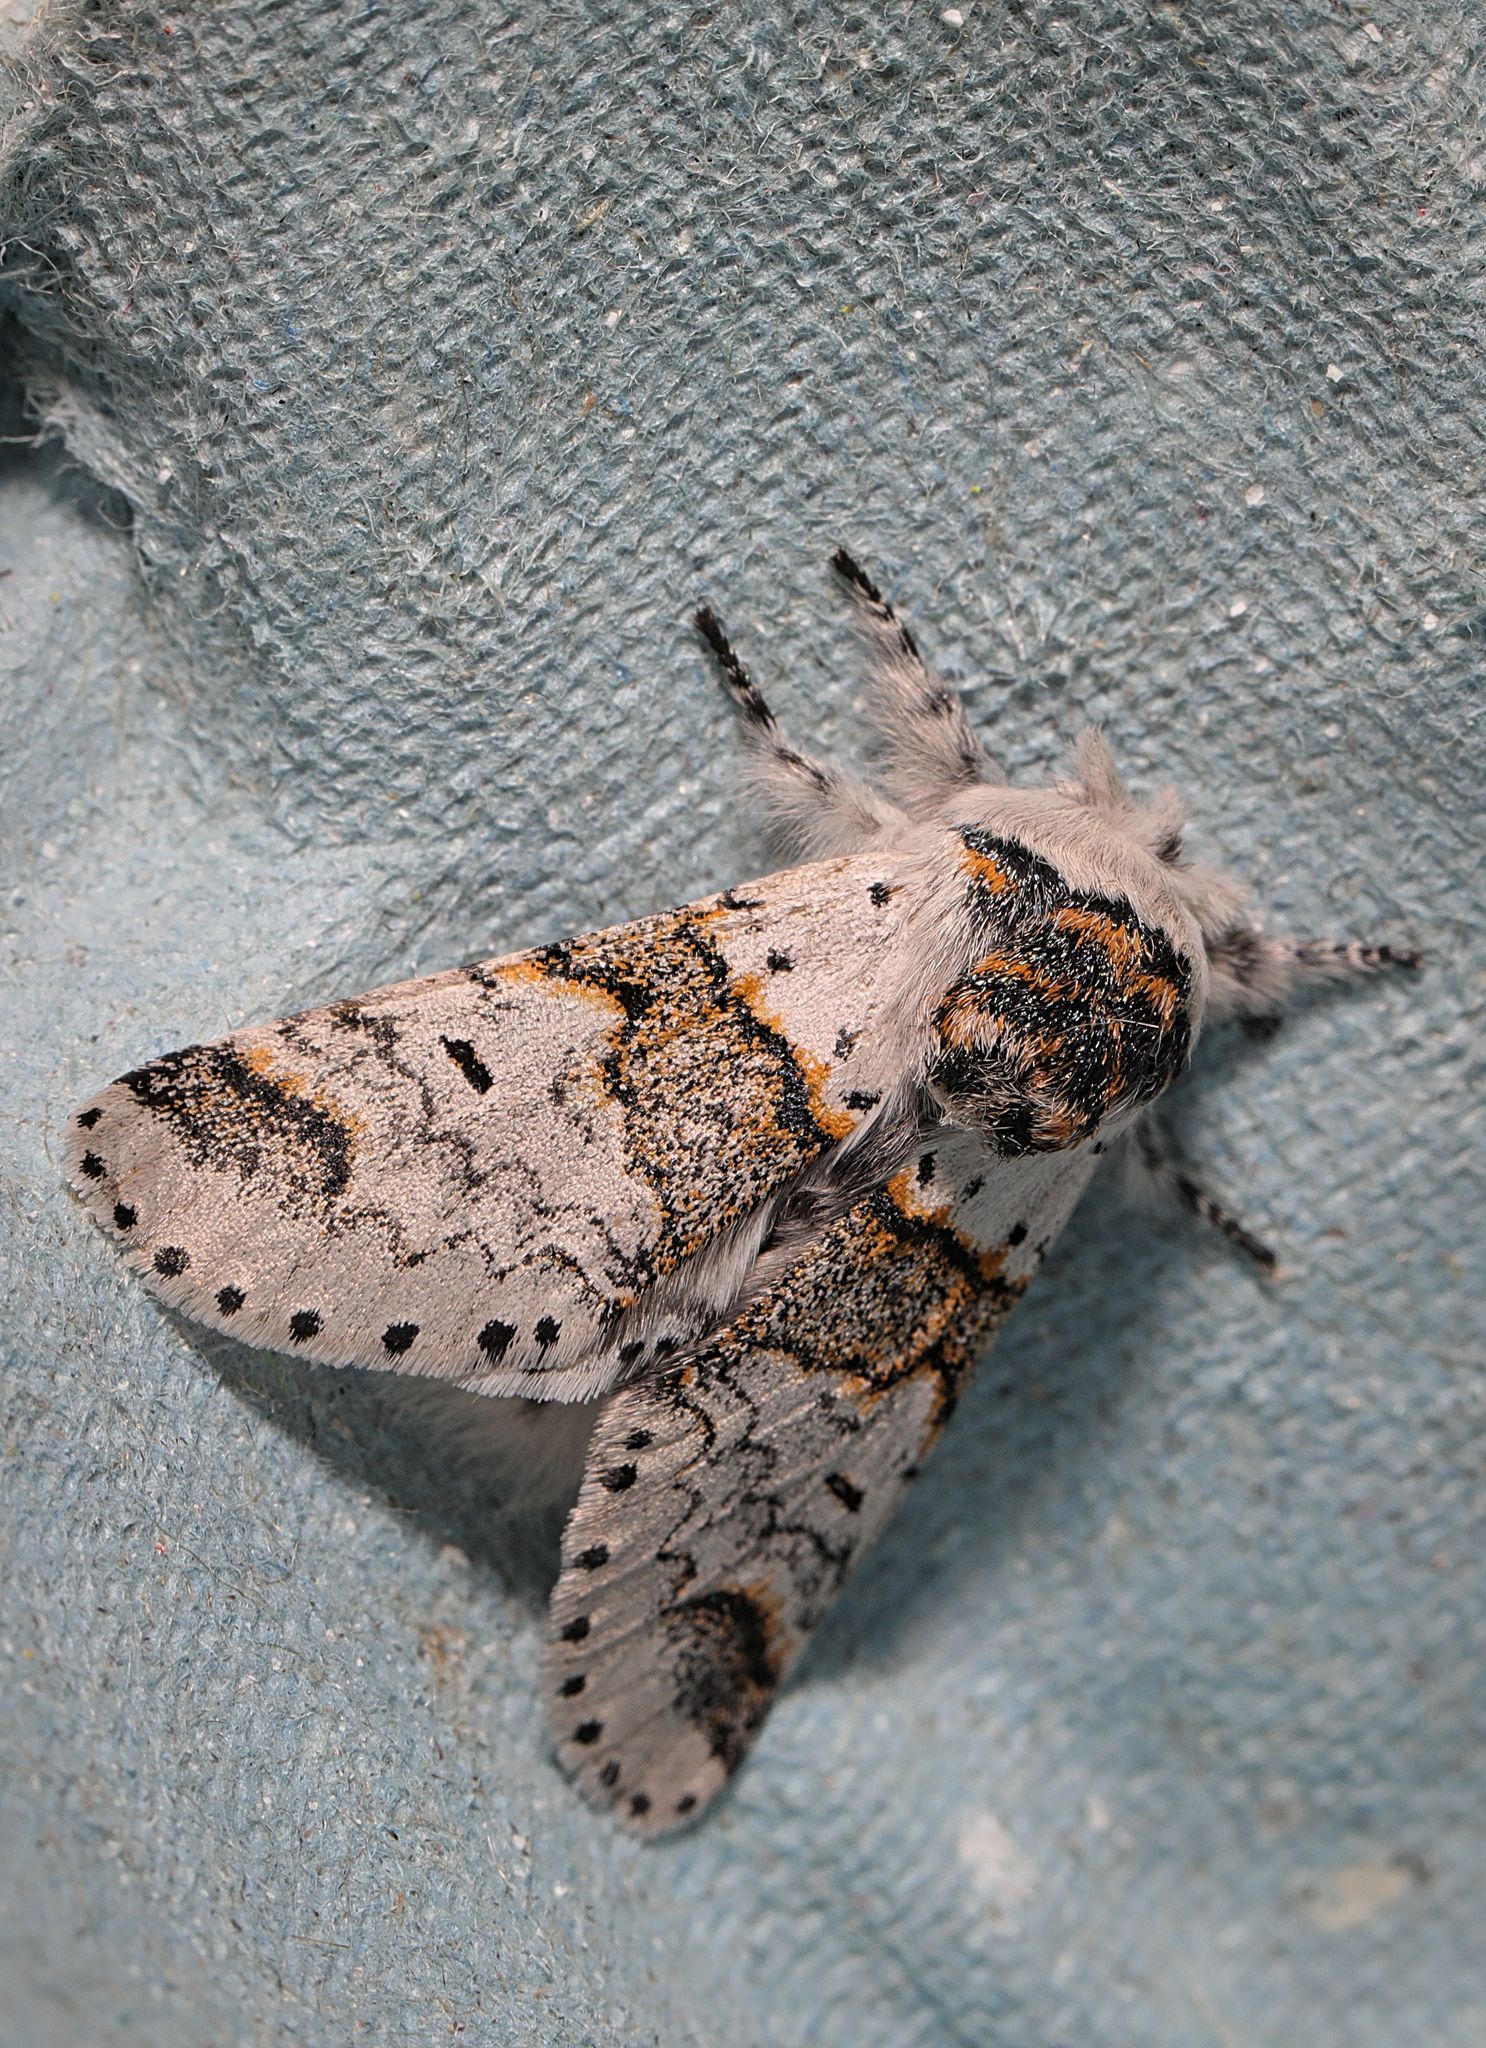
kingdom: Animalia
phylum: Arthropoda
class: Insecta
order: Lepidoptera
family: Notodontidae
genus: Furcula
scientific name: Furcula furcula
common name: Sallow kitten
